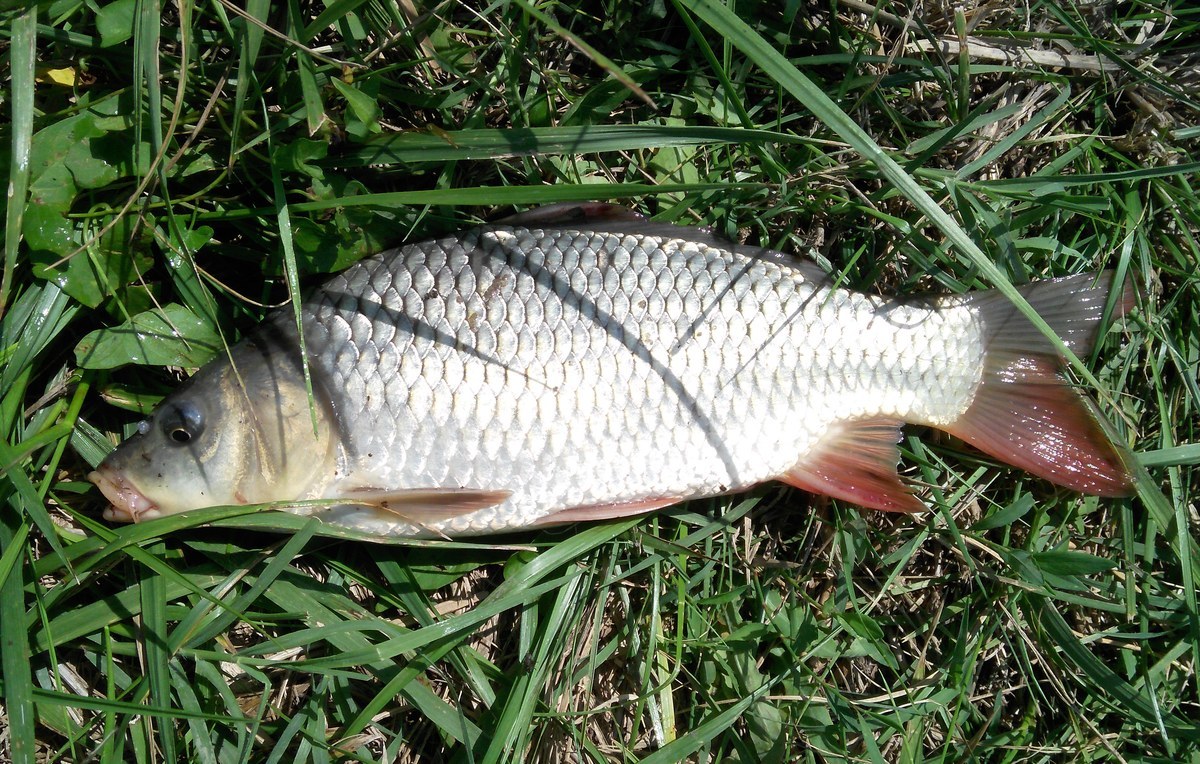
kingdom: Animalia
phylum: Chordata
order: Cypriniformes
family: Cyprinidae
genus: Cyprinus
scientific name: Cyprinus carpio
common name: Common carp
